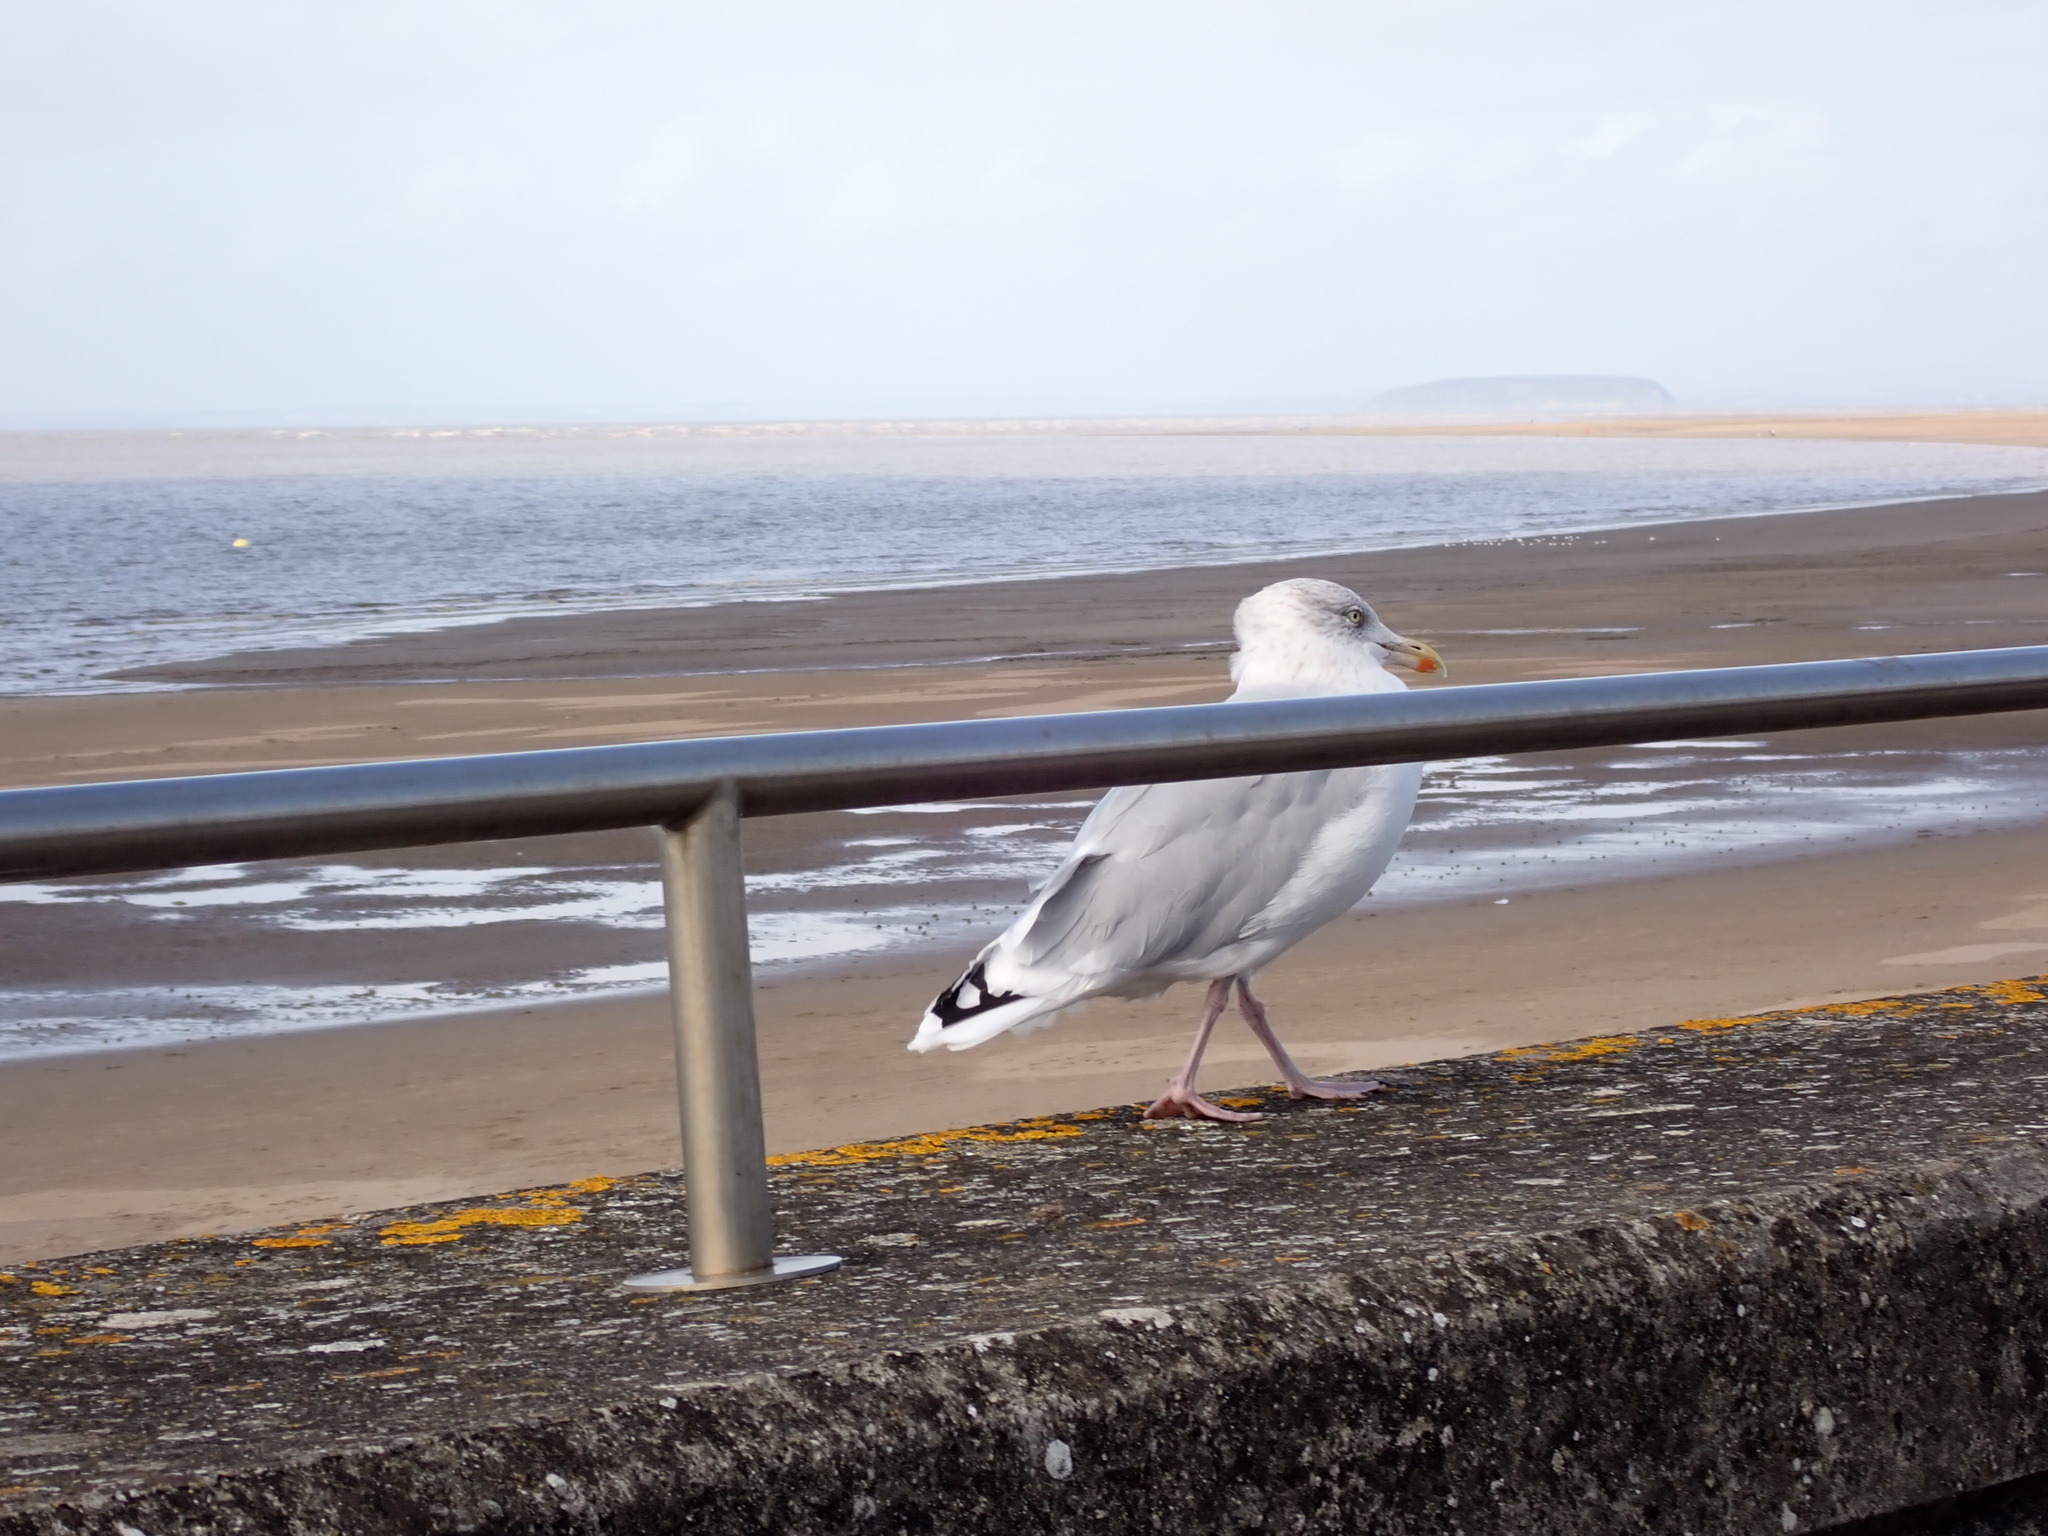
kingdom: Animalia
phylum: Chordata
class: Aves
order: Charadriiformes
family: Laridae
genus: Larus
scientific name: Larus argentatus
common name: Herring gull
